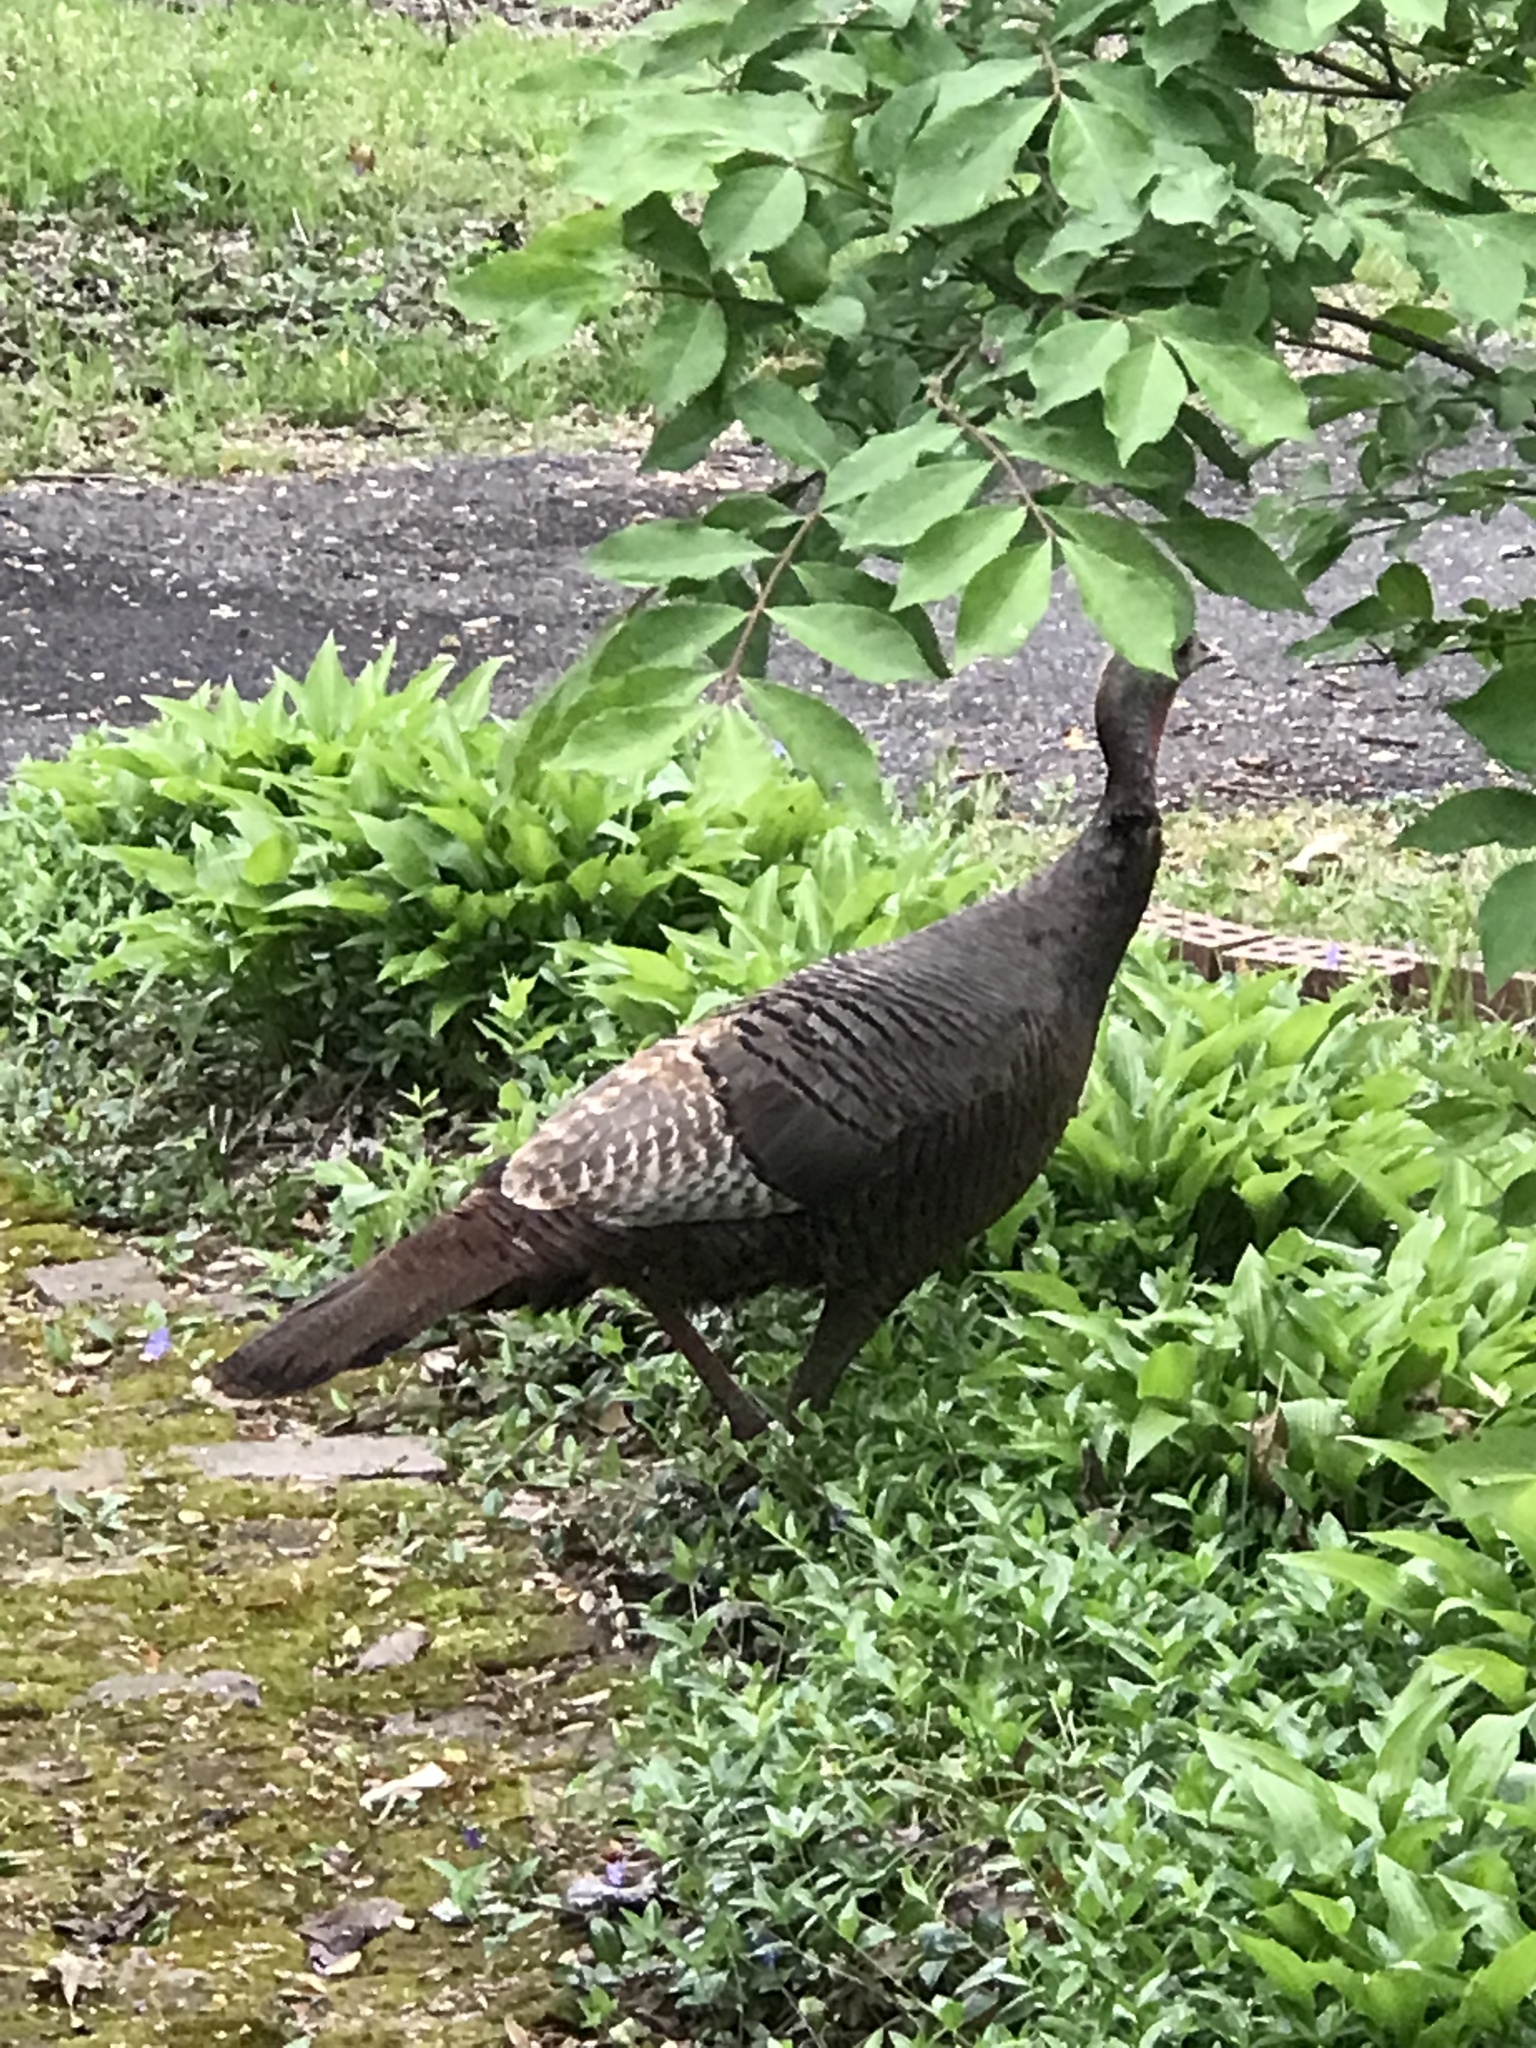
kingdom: Animalia
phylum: Chordata
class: Aves
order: Galliformes
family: Phasianidae
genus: Meleagris
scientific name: Meleagris gallopavo
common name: Wild turkey
